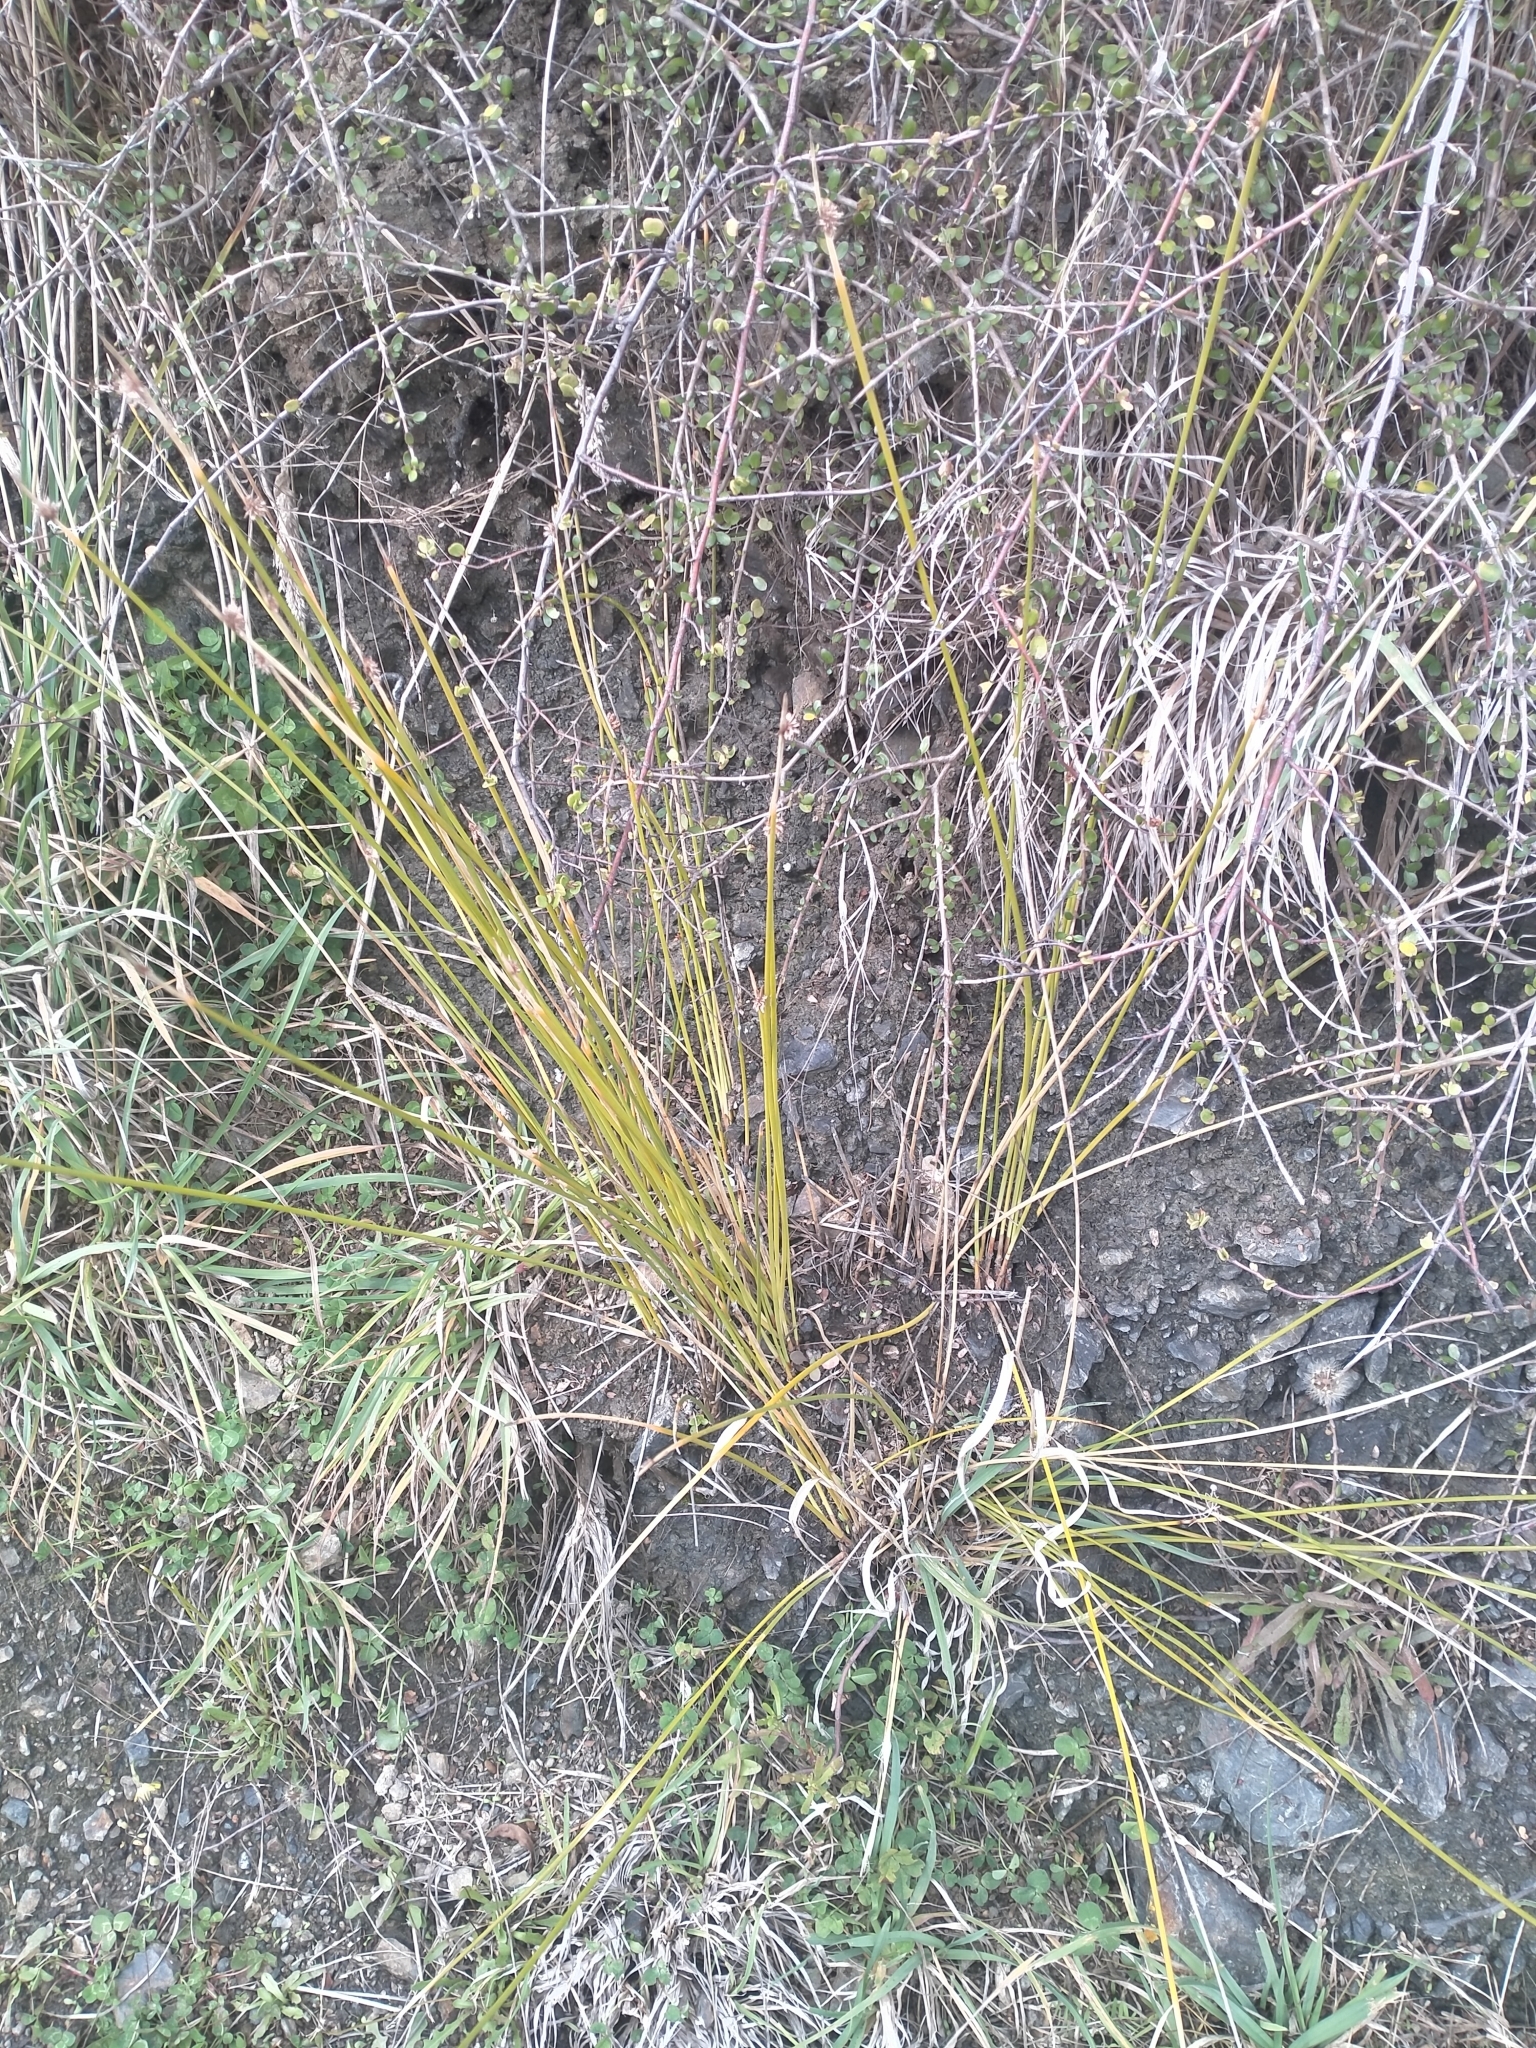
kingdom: Plantae
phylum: Tracheophyta
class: Liliopsida
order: Poales
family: Cyperaceae
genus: Ficinia
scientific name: Ficinia nodosa
